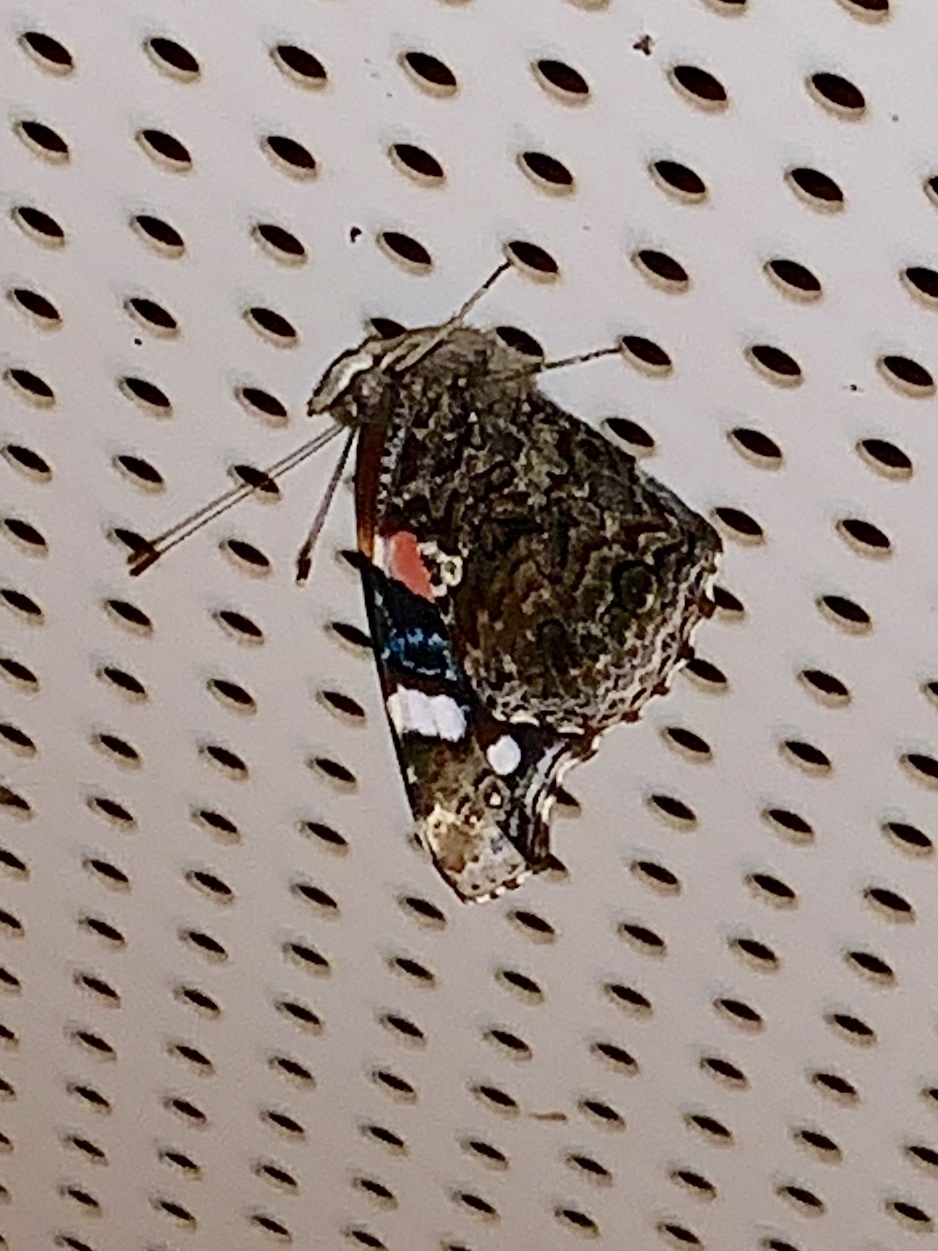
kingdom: Animalia
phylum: Arthropoda
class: Insecta
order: Lepidoptera
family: Nymphalidae
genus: Vanessa
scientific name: Vanessa atalanta
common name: Red admiral
